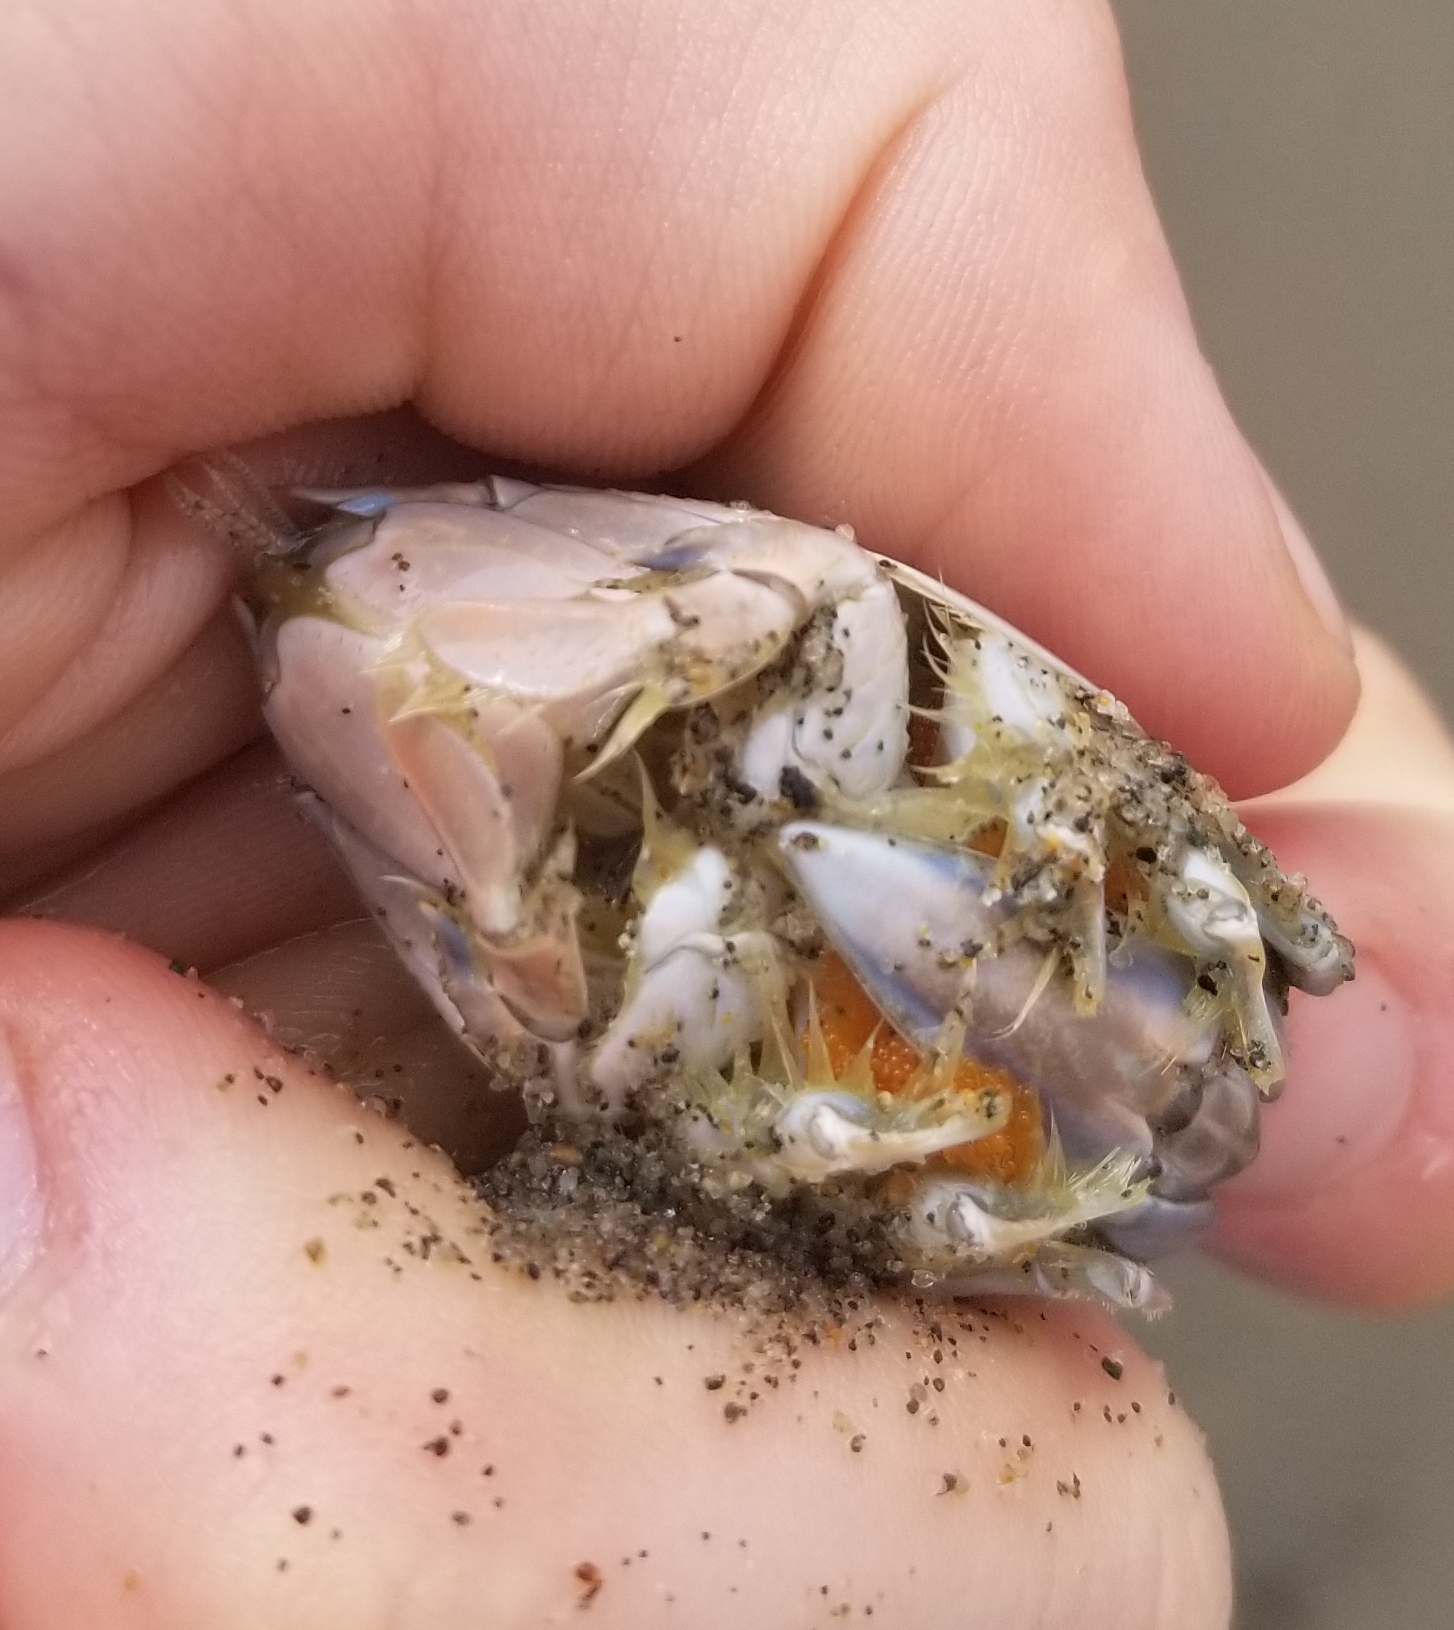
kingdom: Animalia
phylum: Arthropoda
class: Malacostraca
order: Decapoda
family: Hippidae
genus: Emerita
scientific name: Emerita analoga
